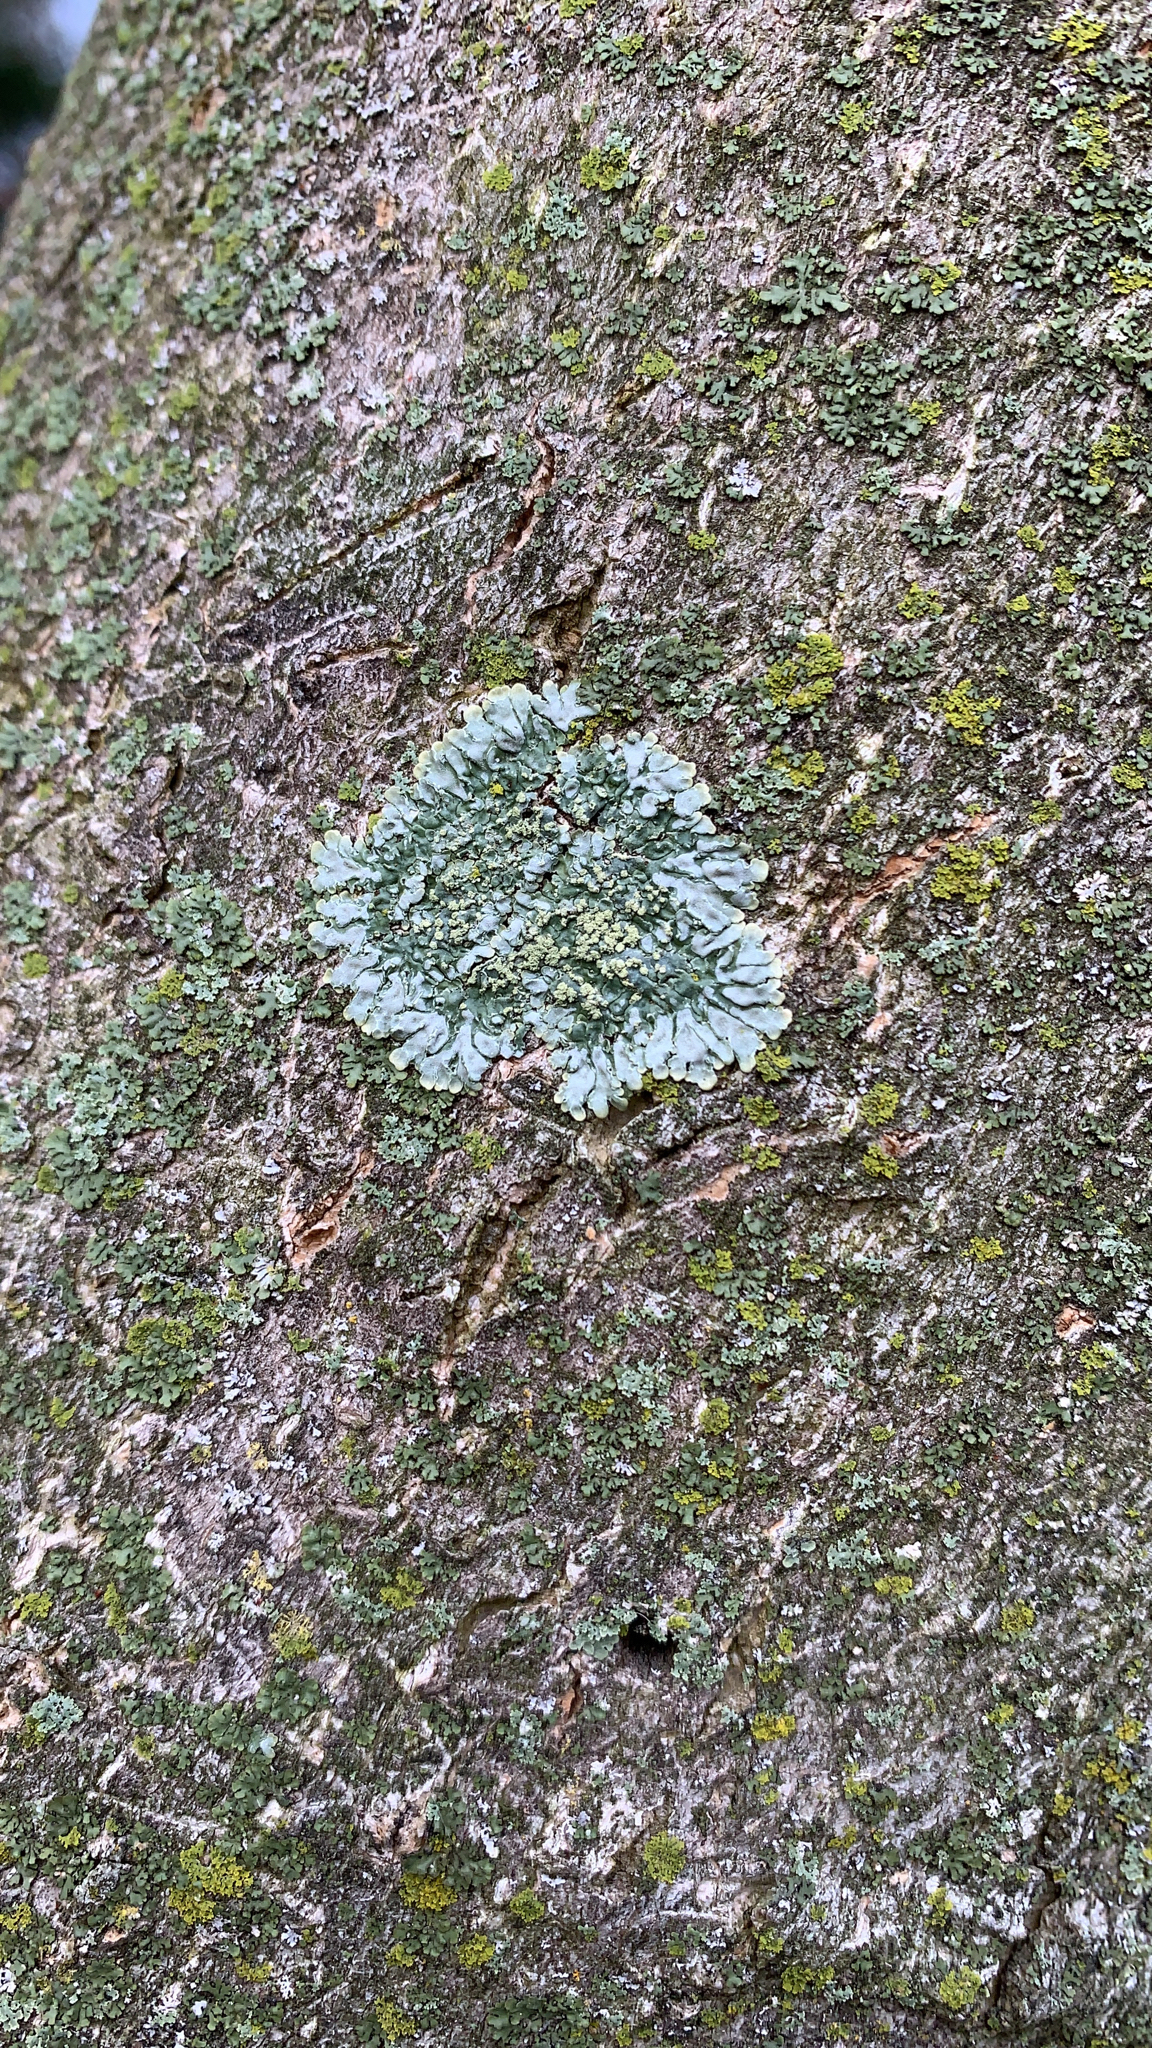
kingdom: Fungi
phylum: Ascomycota
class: Lecanoromycetes
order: Caliciales
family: Caliciaceae
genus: Pyxine
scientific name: Pyxine
